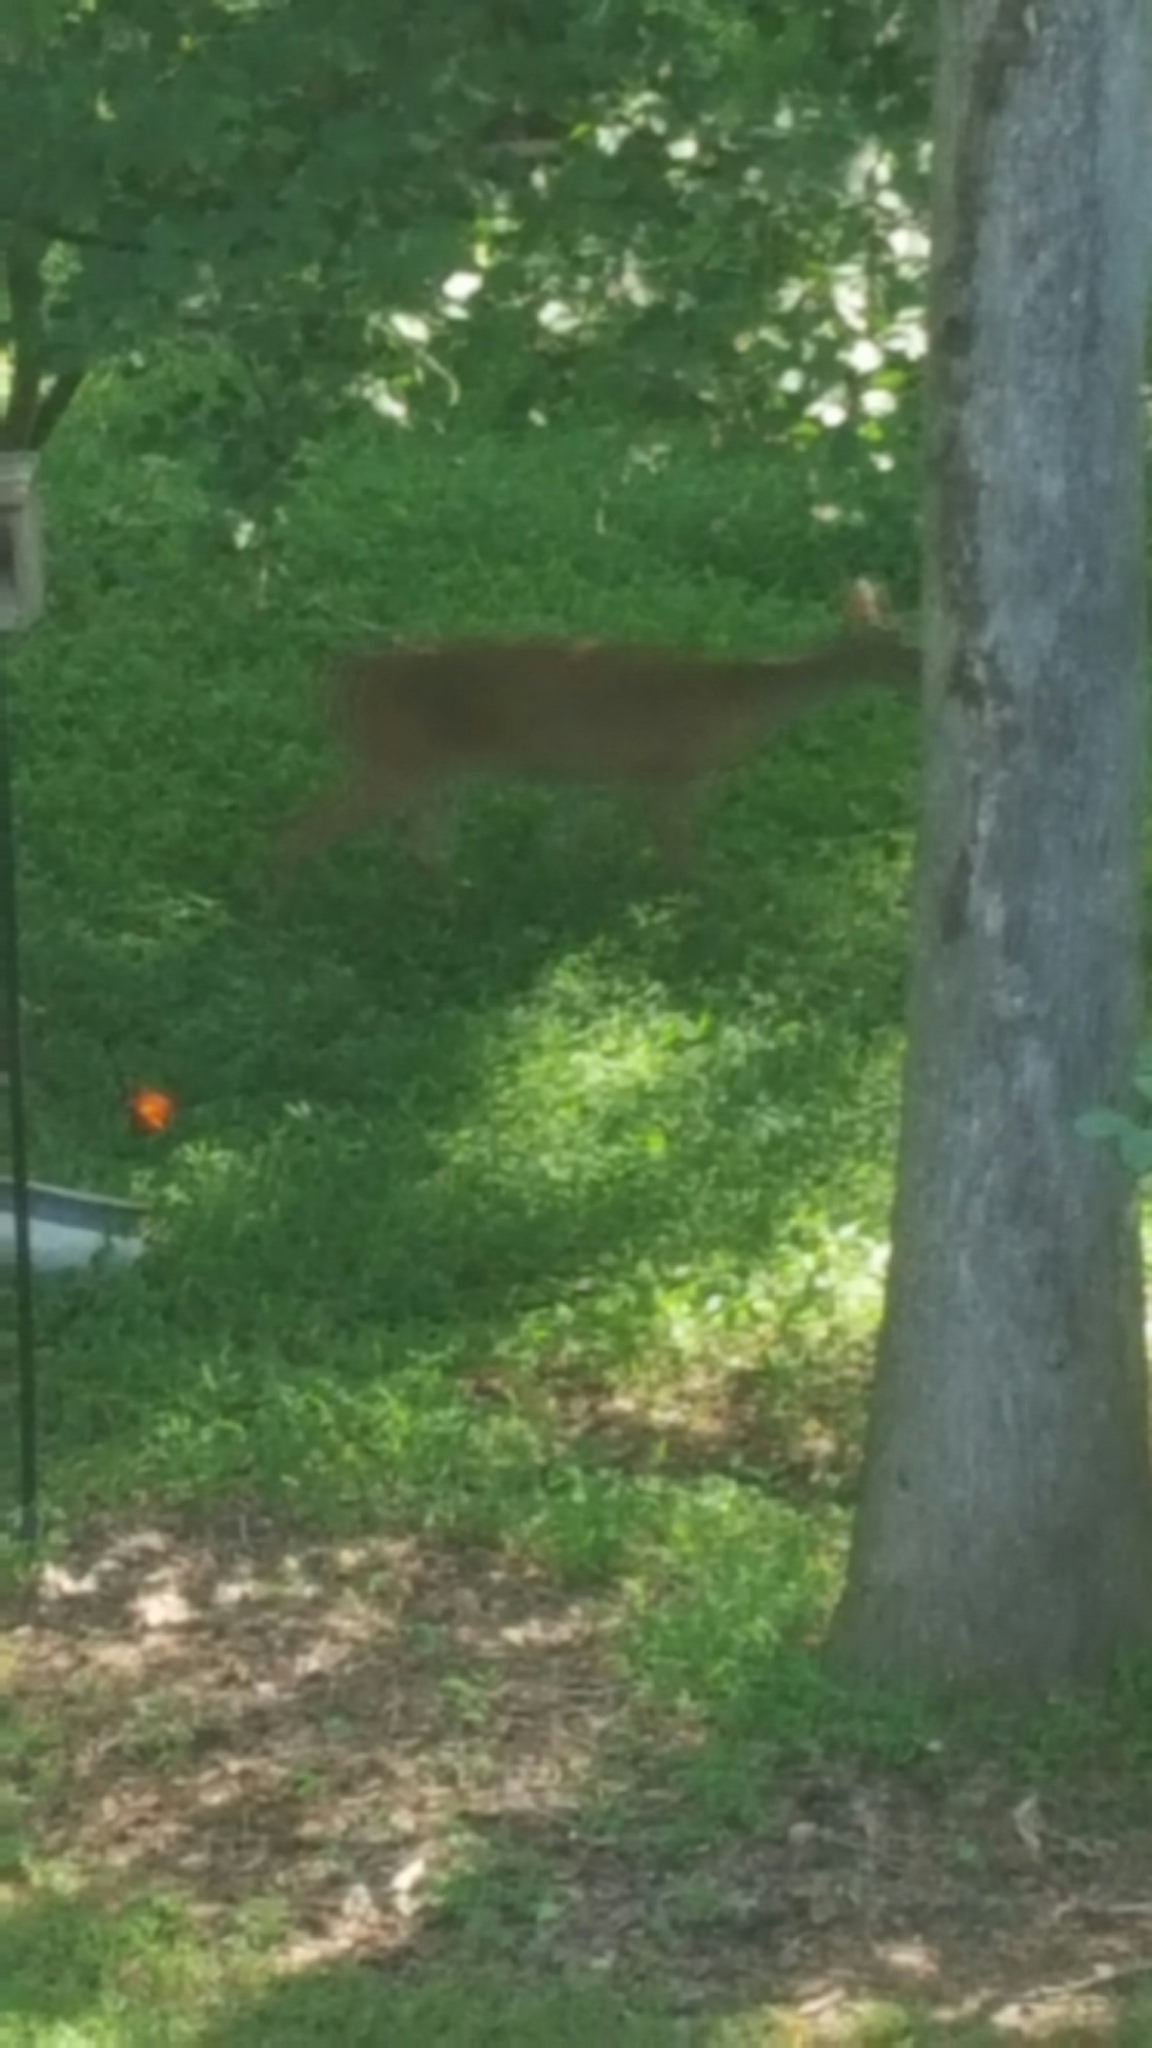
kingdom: Animalia
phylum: Chordata
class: Mammalia
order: Artiodactyla
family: Cervidae
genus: Odocoileus
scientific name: Odocoileus virginianus
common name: White-tailed deer
